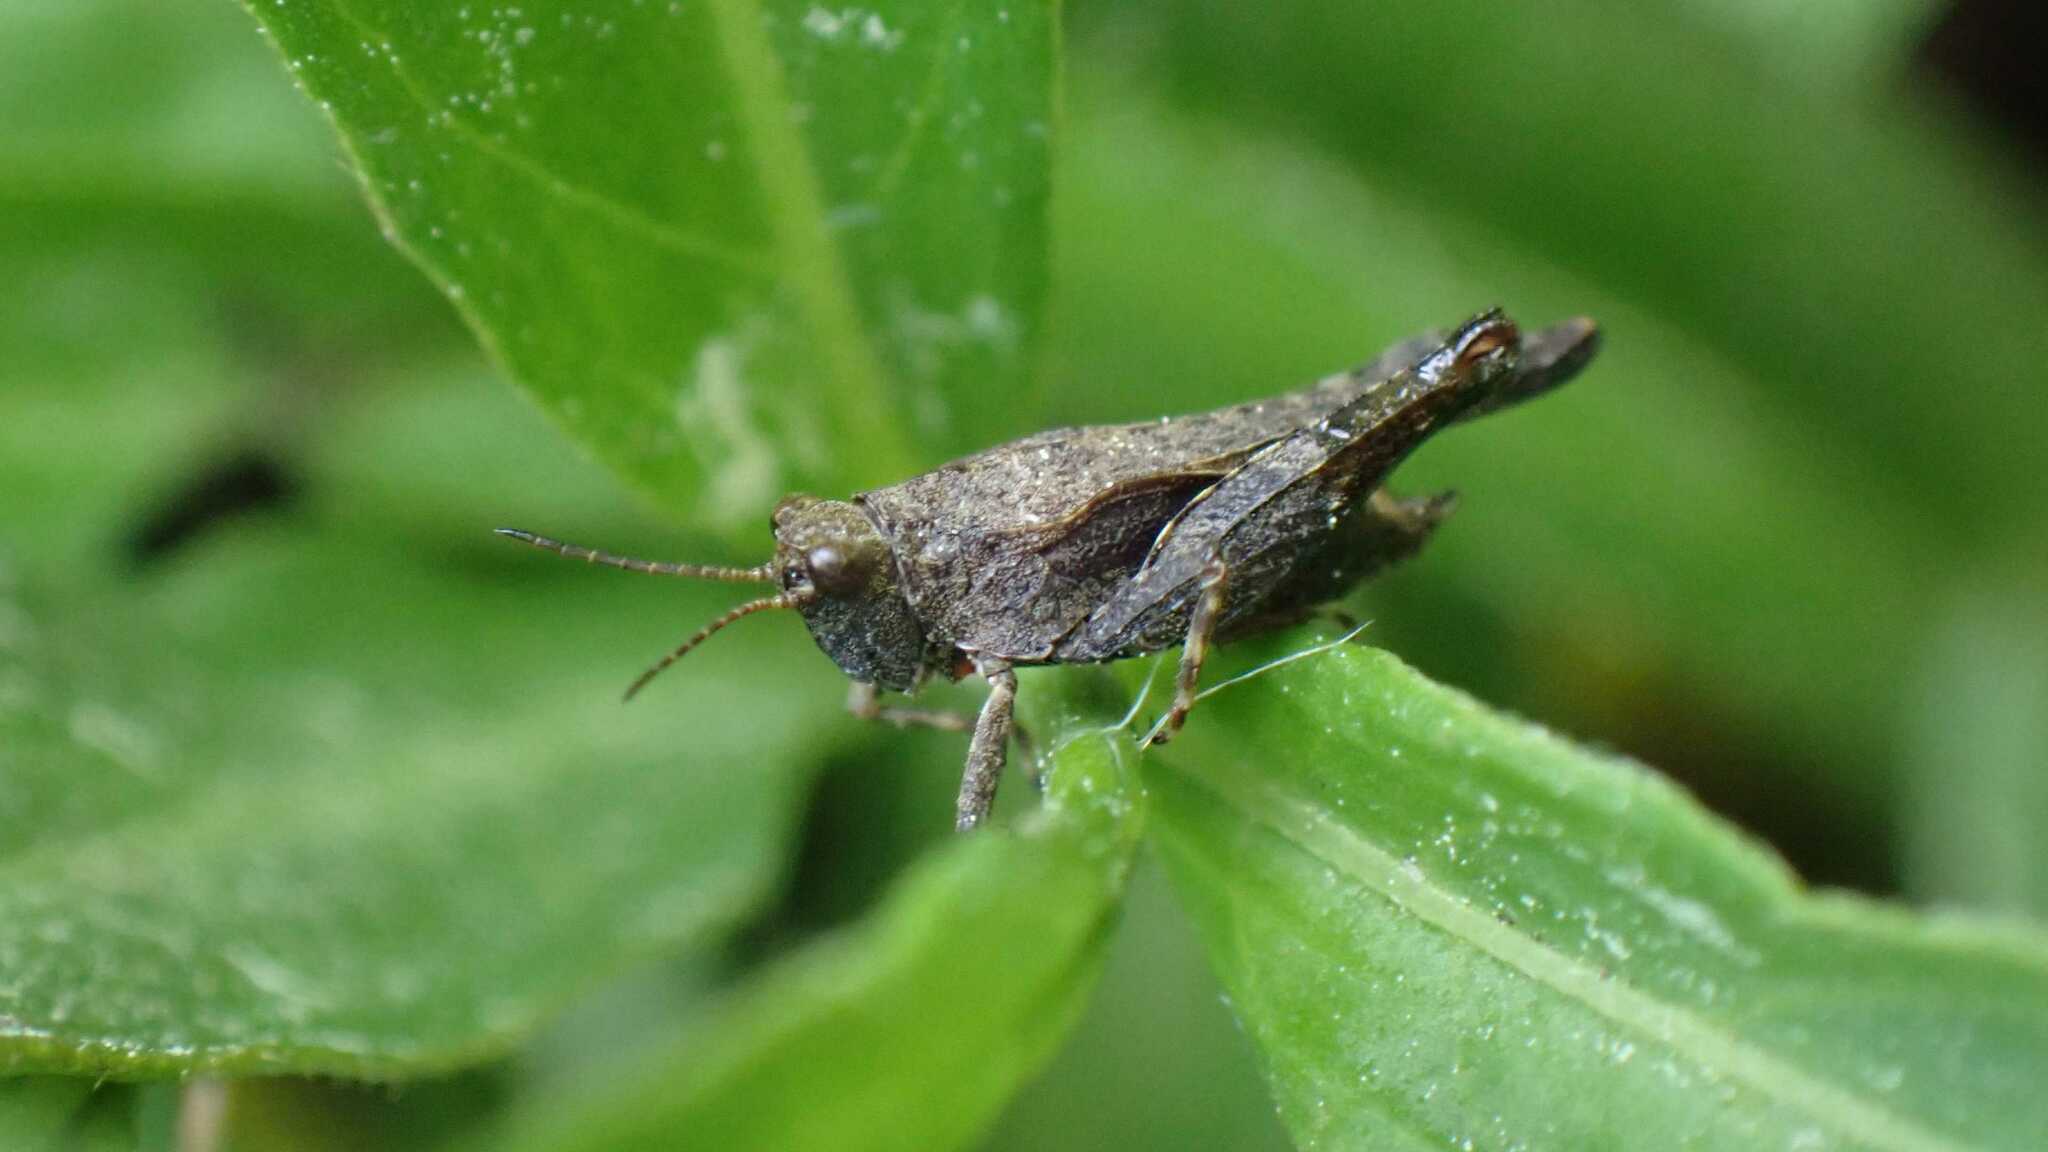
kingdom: Animalia
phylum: Arthropoda
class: Insecta
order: Orthoptera
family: Tetrigidae
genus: Tetrix
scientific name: Tetrix subulata
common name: Slender ground-hopper
